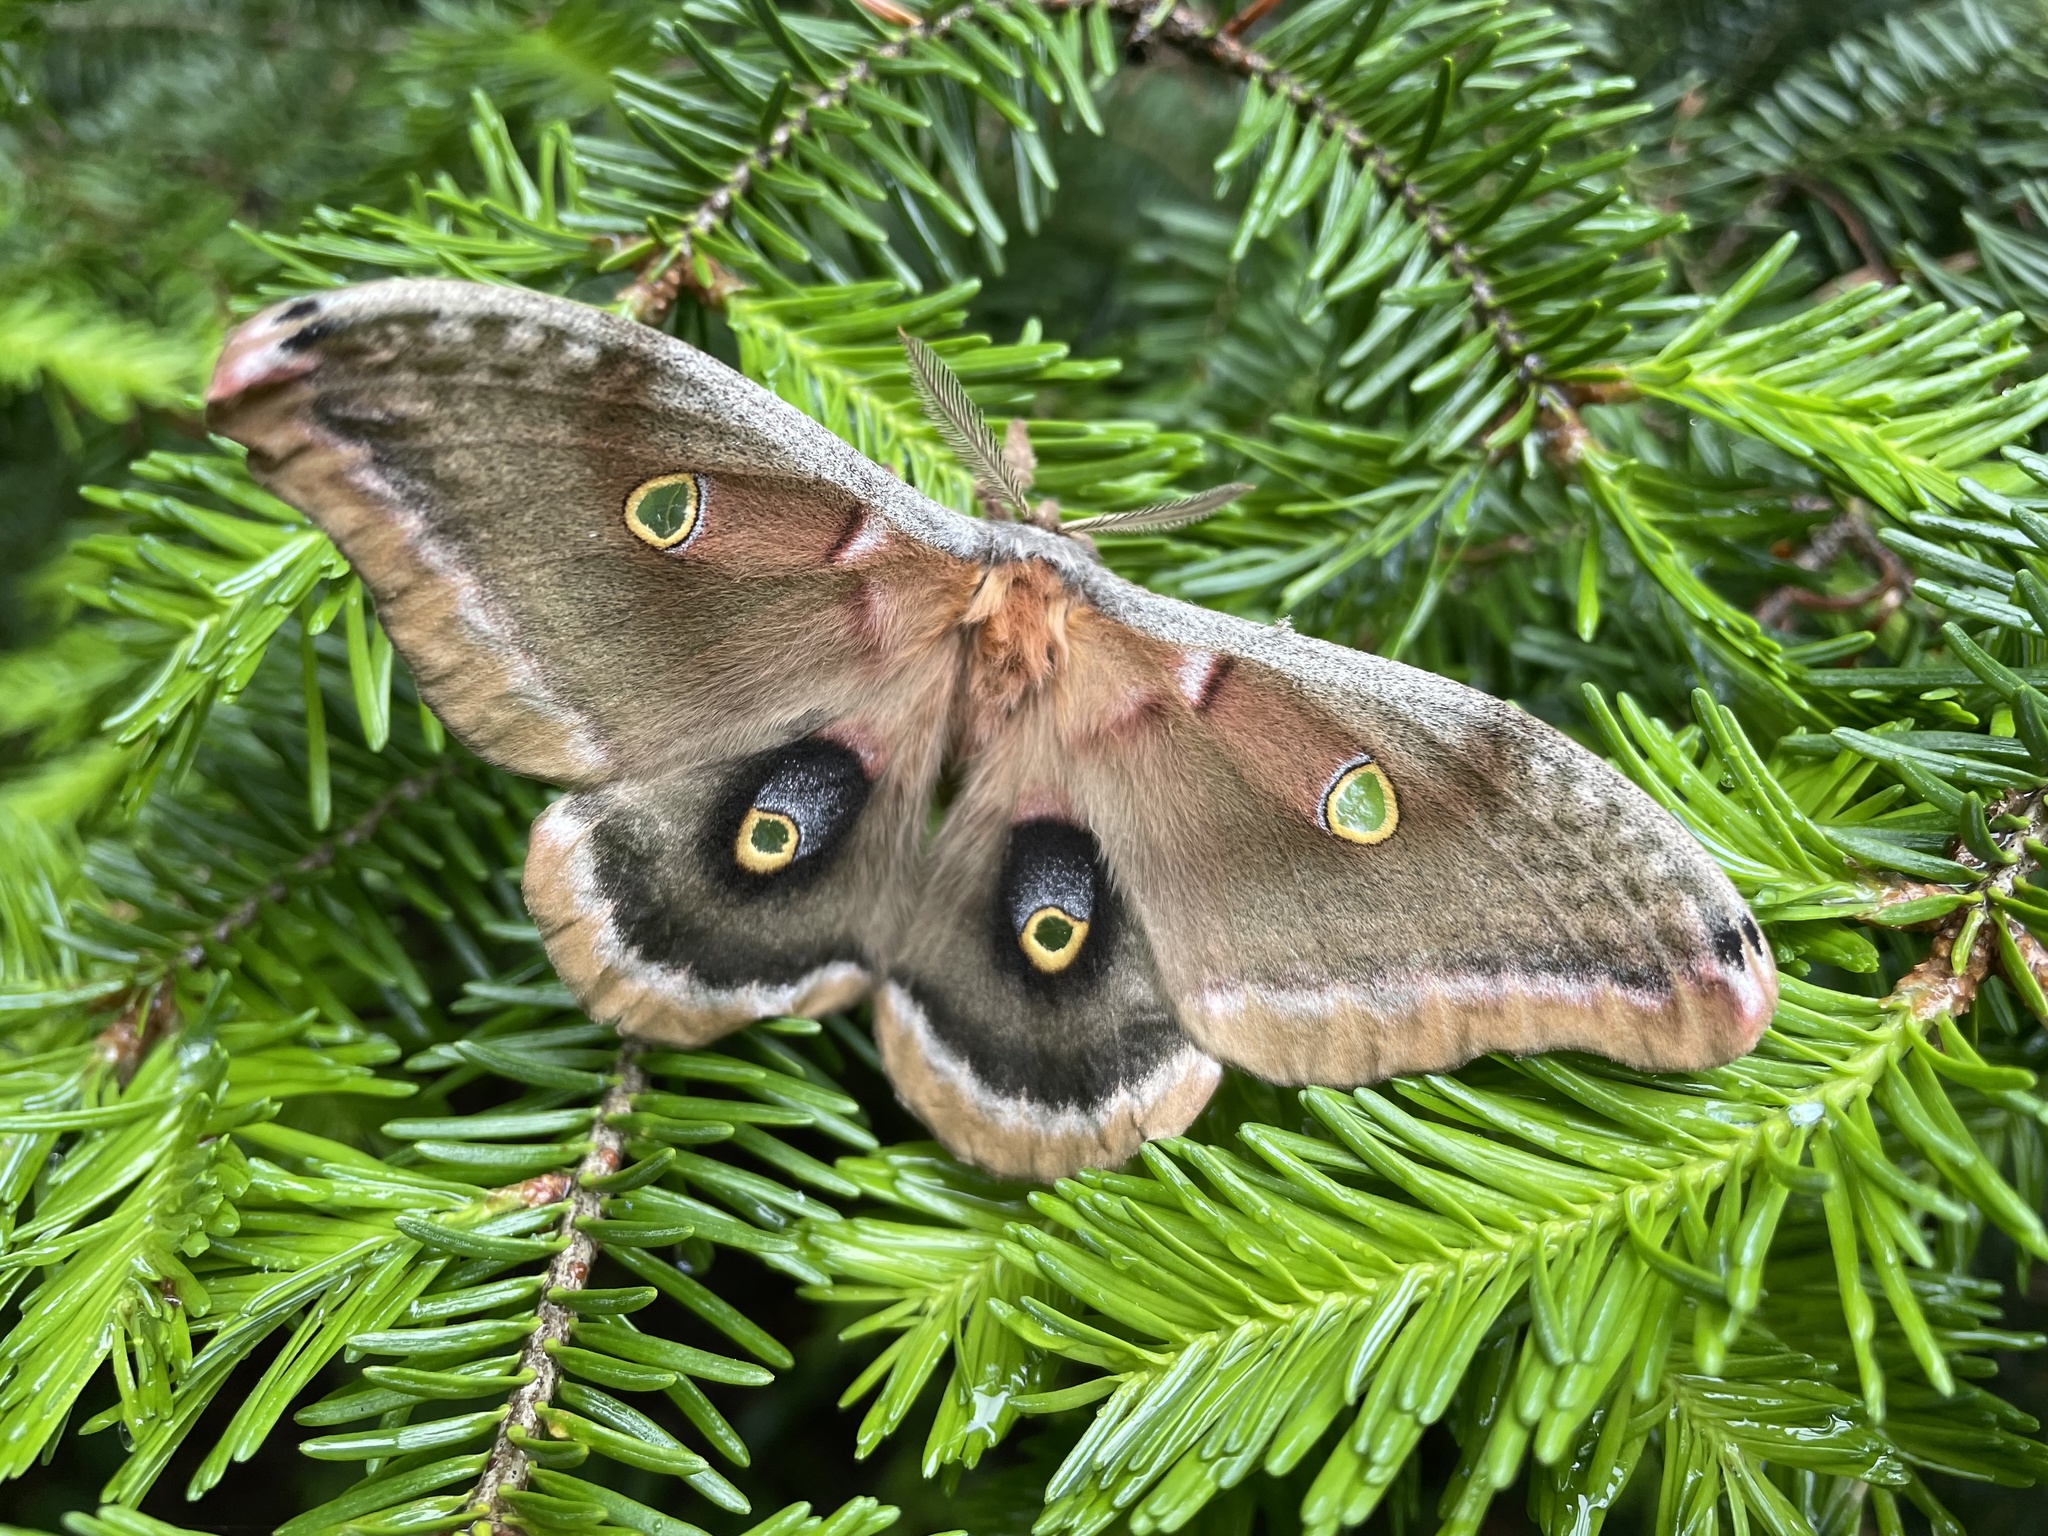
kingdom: Animalia
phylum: Arthropoda
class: Insecta
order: Lepidoptera
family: Saturniidae
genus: Antheraea
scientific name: Antheraea polyphemus
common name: Polyphemus moth
